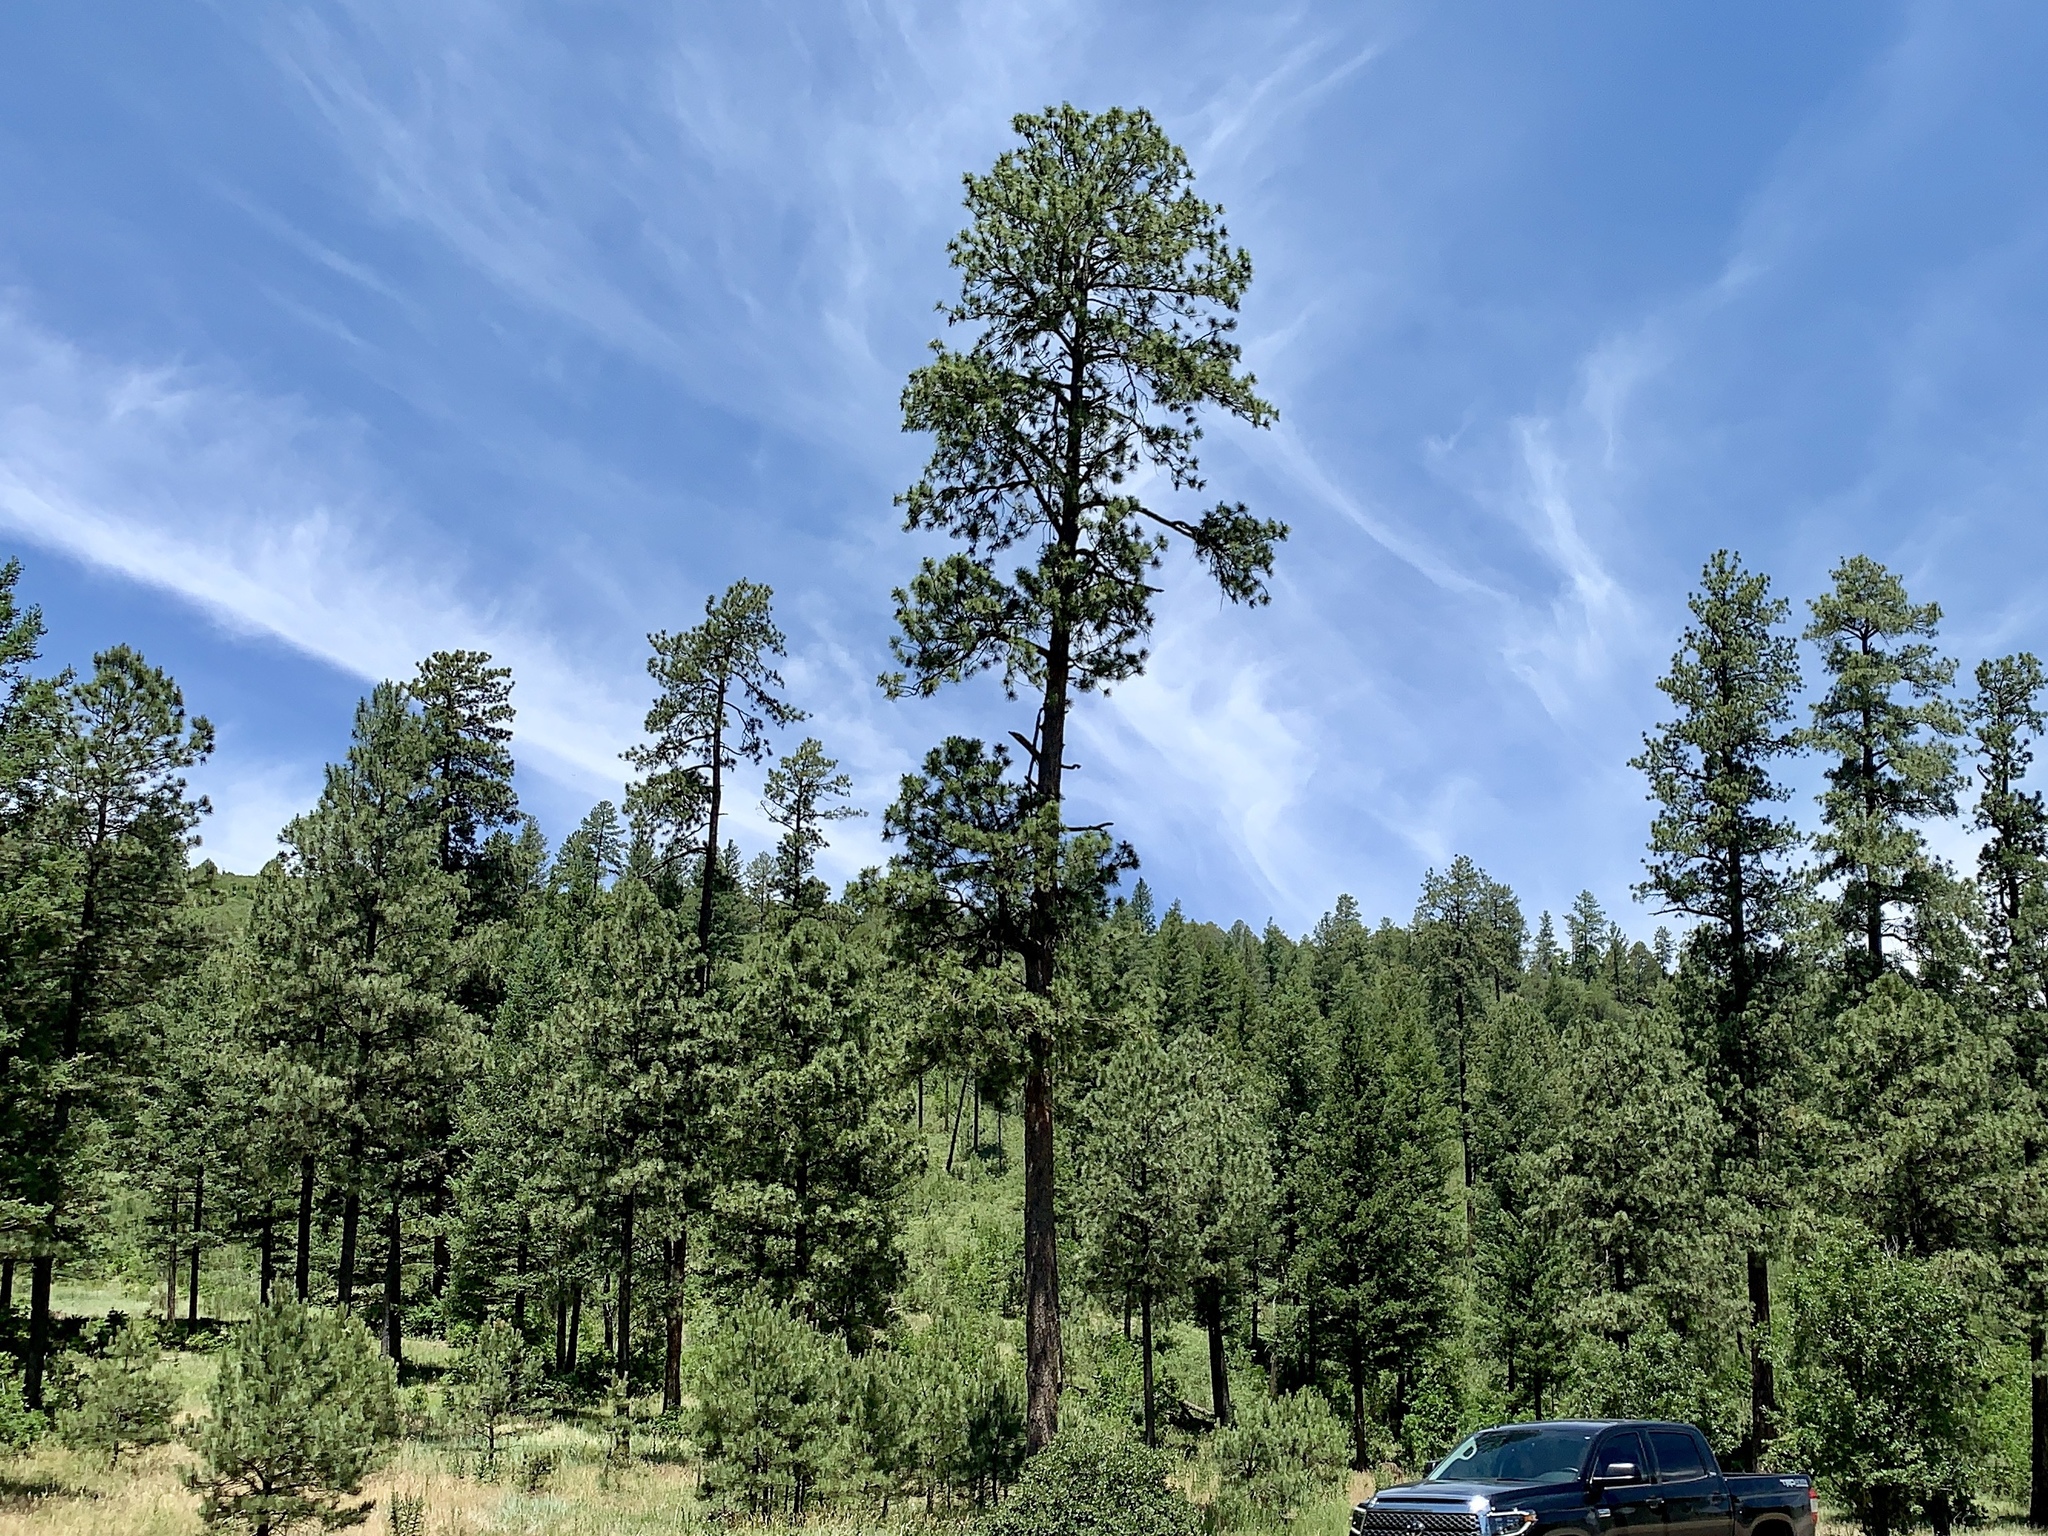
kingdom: Plantae
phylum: Tracheophyta
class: Pinopsida
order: Pinales
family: Pinaceae
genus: Pinus
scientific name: Pinus ponderosa
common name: Western yellow-pine
